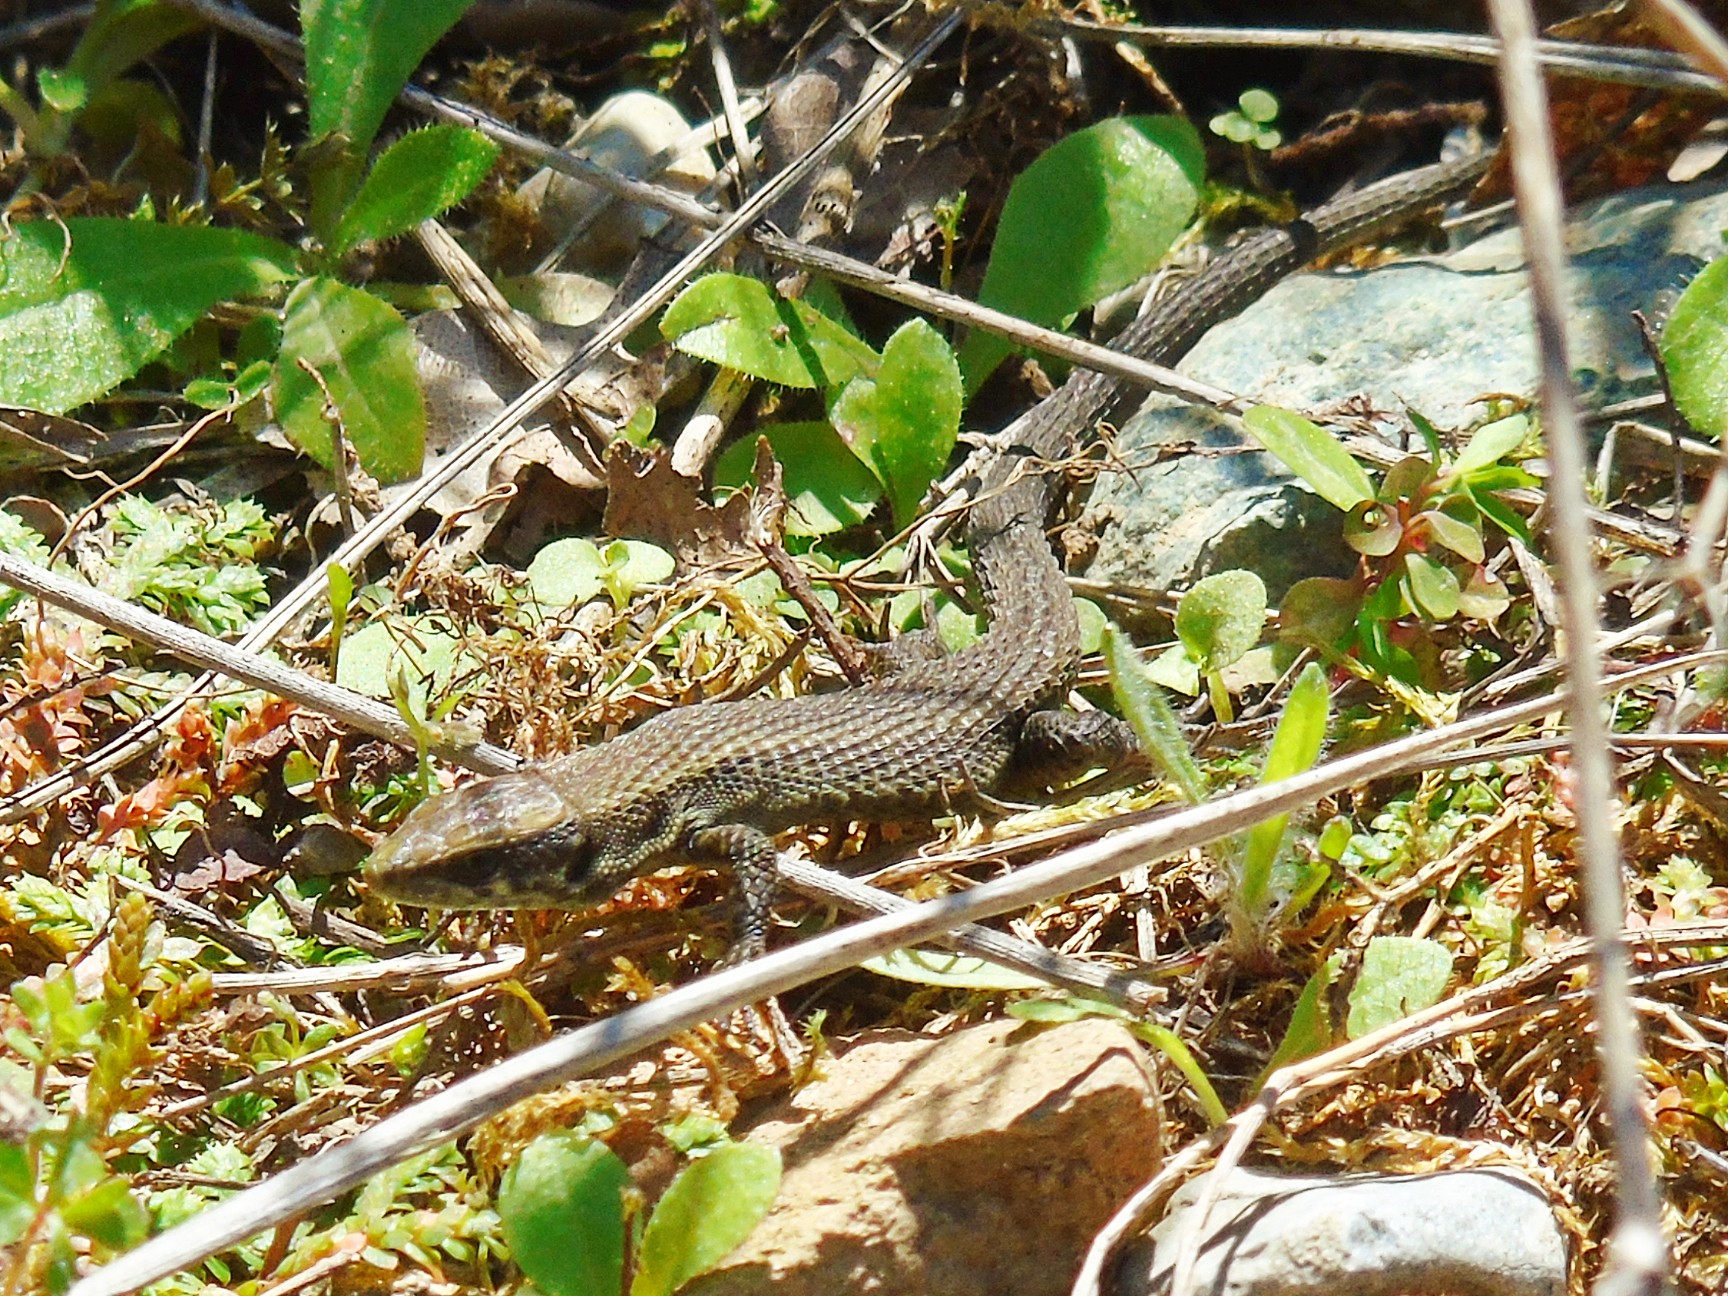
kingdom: Animalia
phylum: Chordata
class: Squamata
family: Lacertidae
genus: Algyroides
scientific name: Algyroides moreoticus
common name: Greek algyroides
